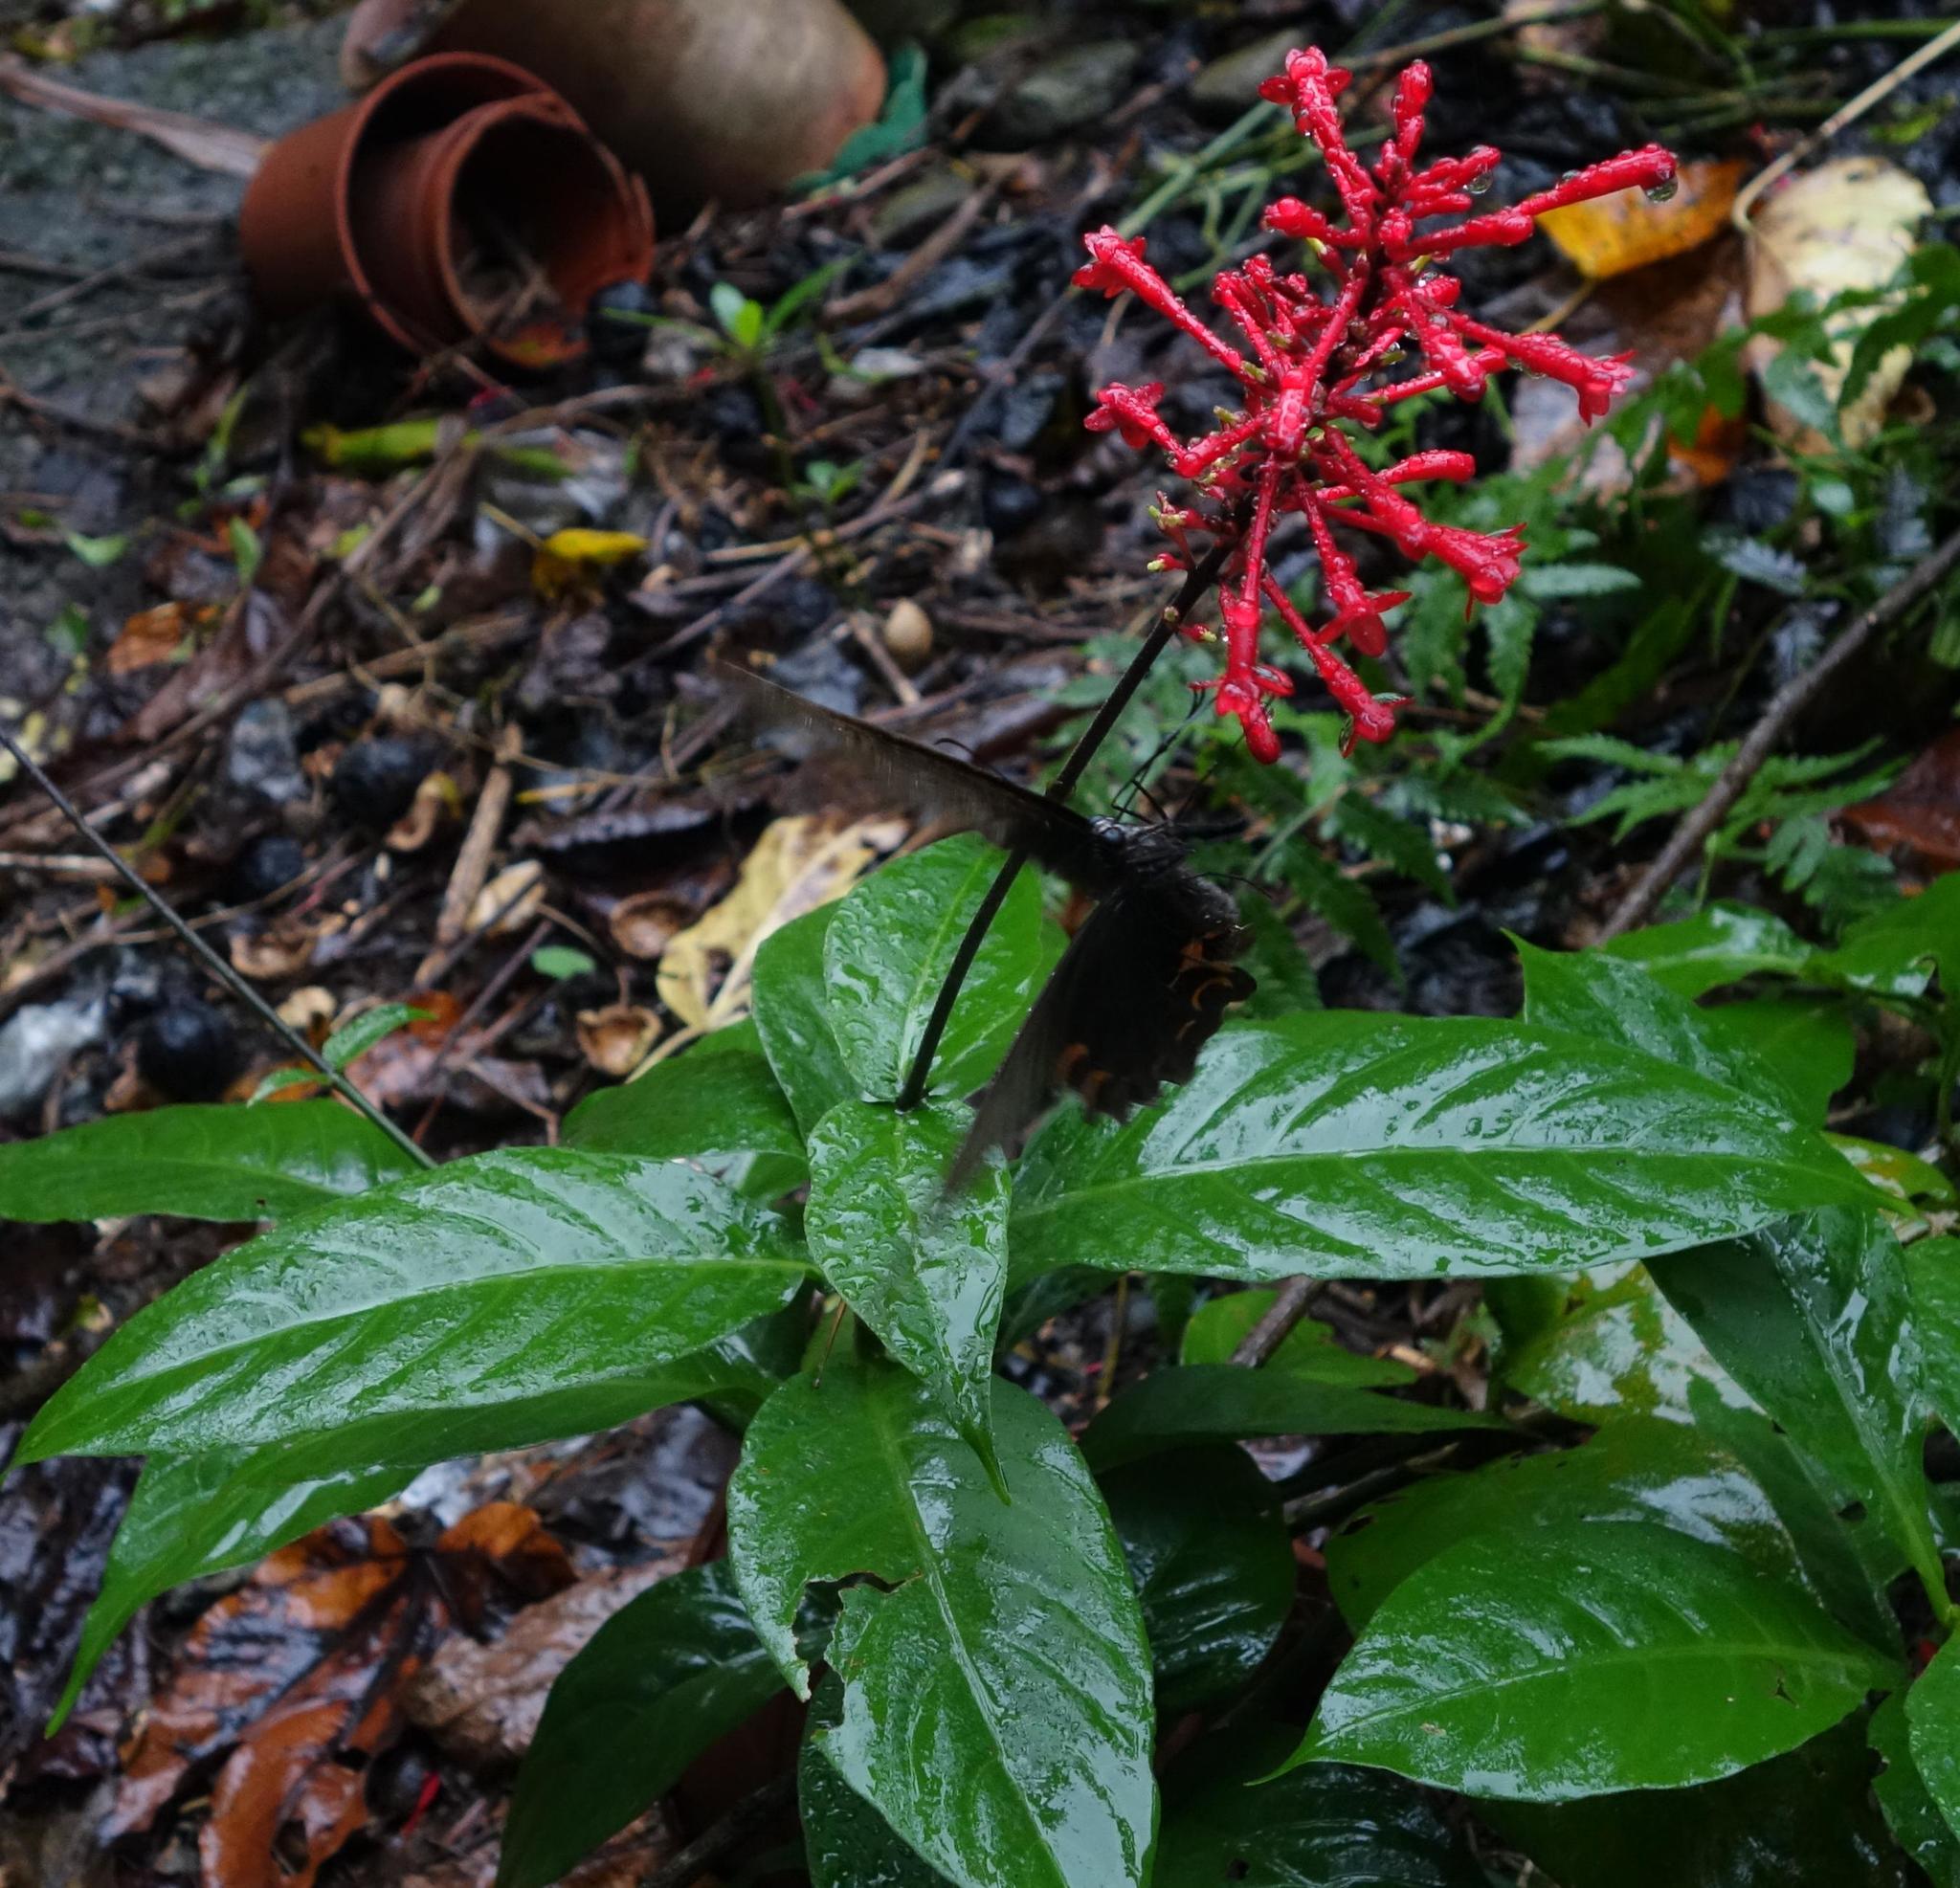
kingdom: Plantae
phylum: Tracheophyta
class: Magnoliopsida
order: Lamiales
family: Acanthaceae
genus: Odontonema
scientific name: Odontonema tubaeforme
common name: Firespike
